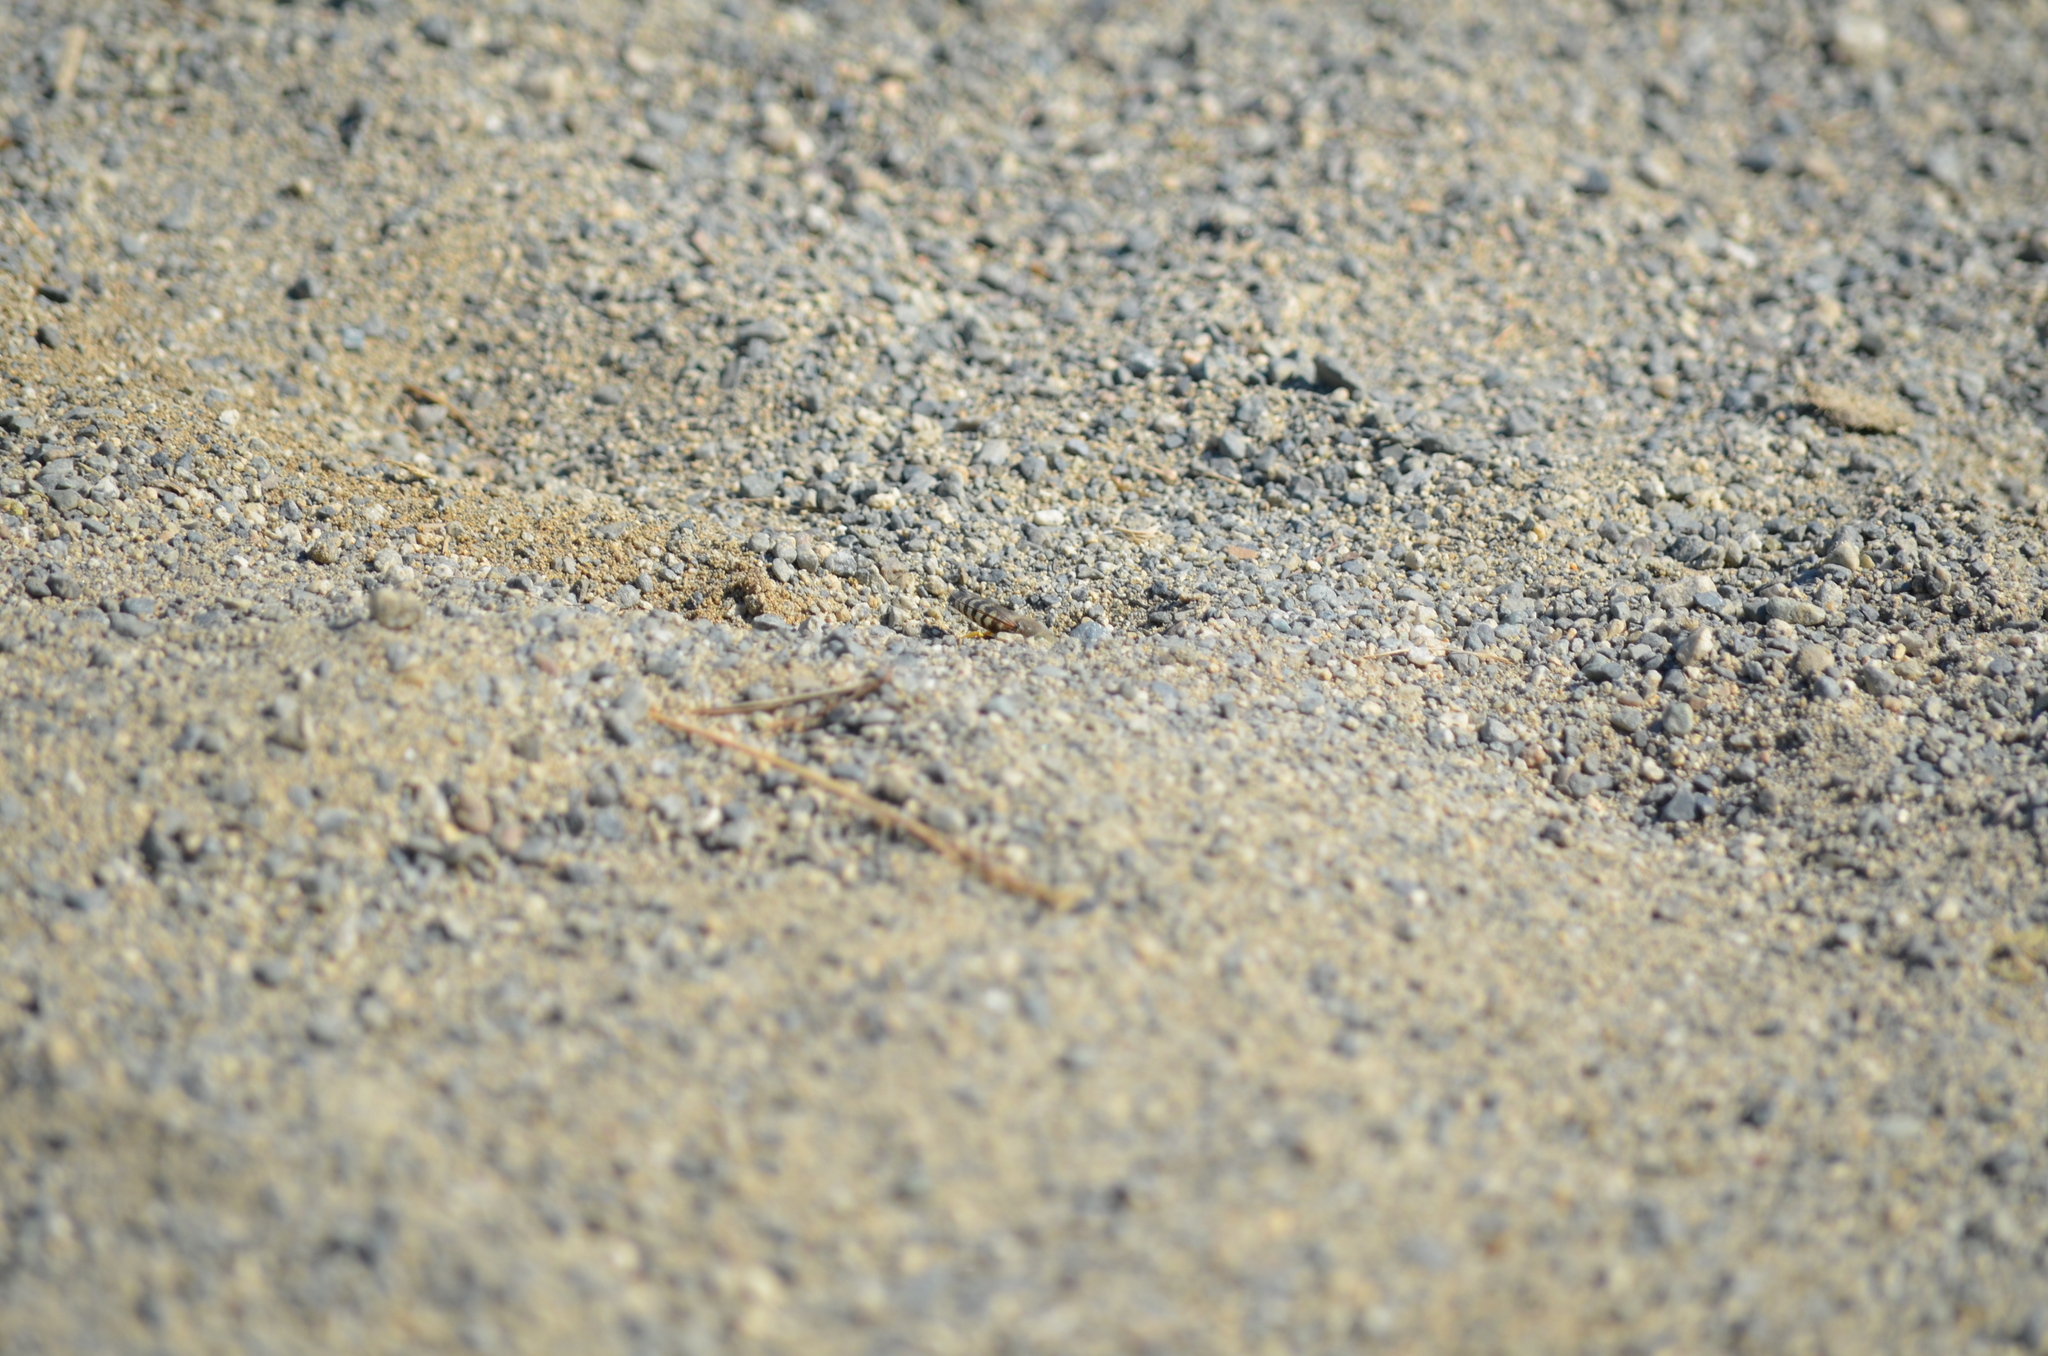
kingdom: Animalia
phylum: Arthropoda
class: Insecta
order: Hymenoptera
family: Crabronidae
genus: Bembix
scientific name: Bembix americana
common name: American sand wasp
